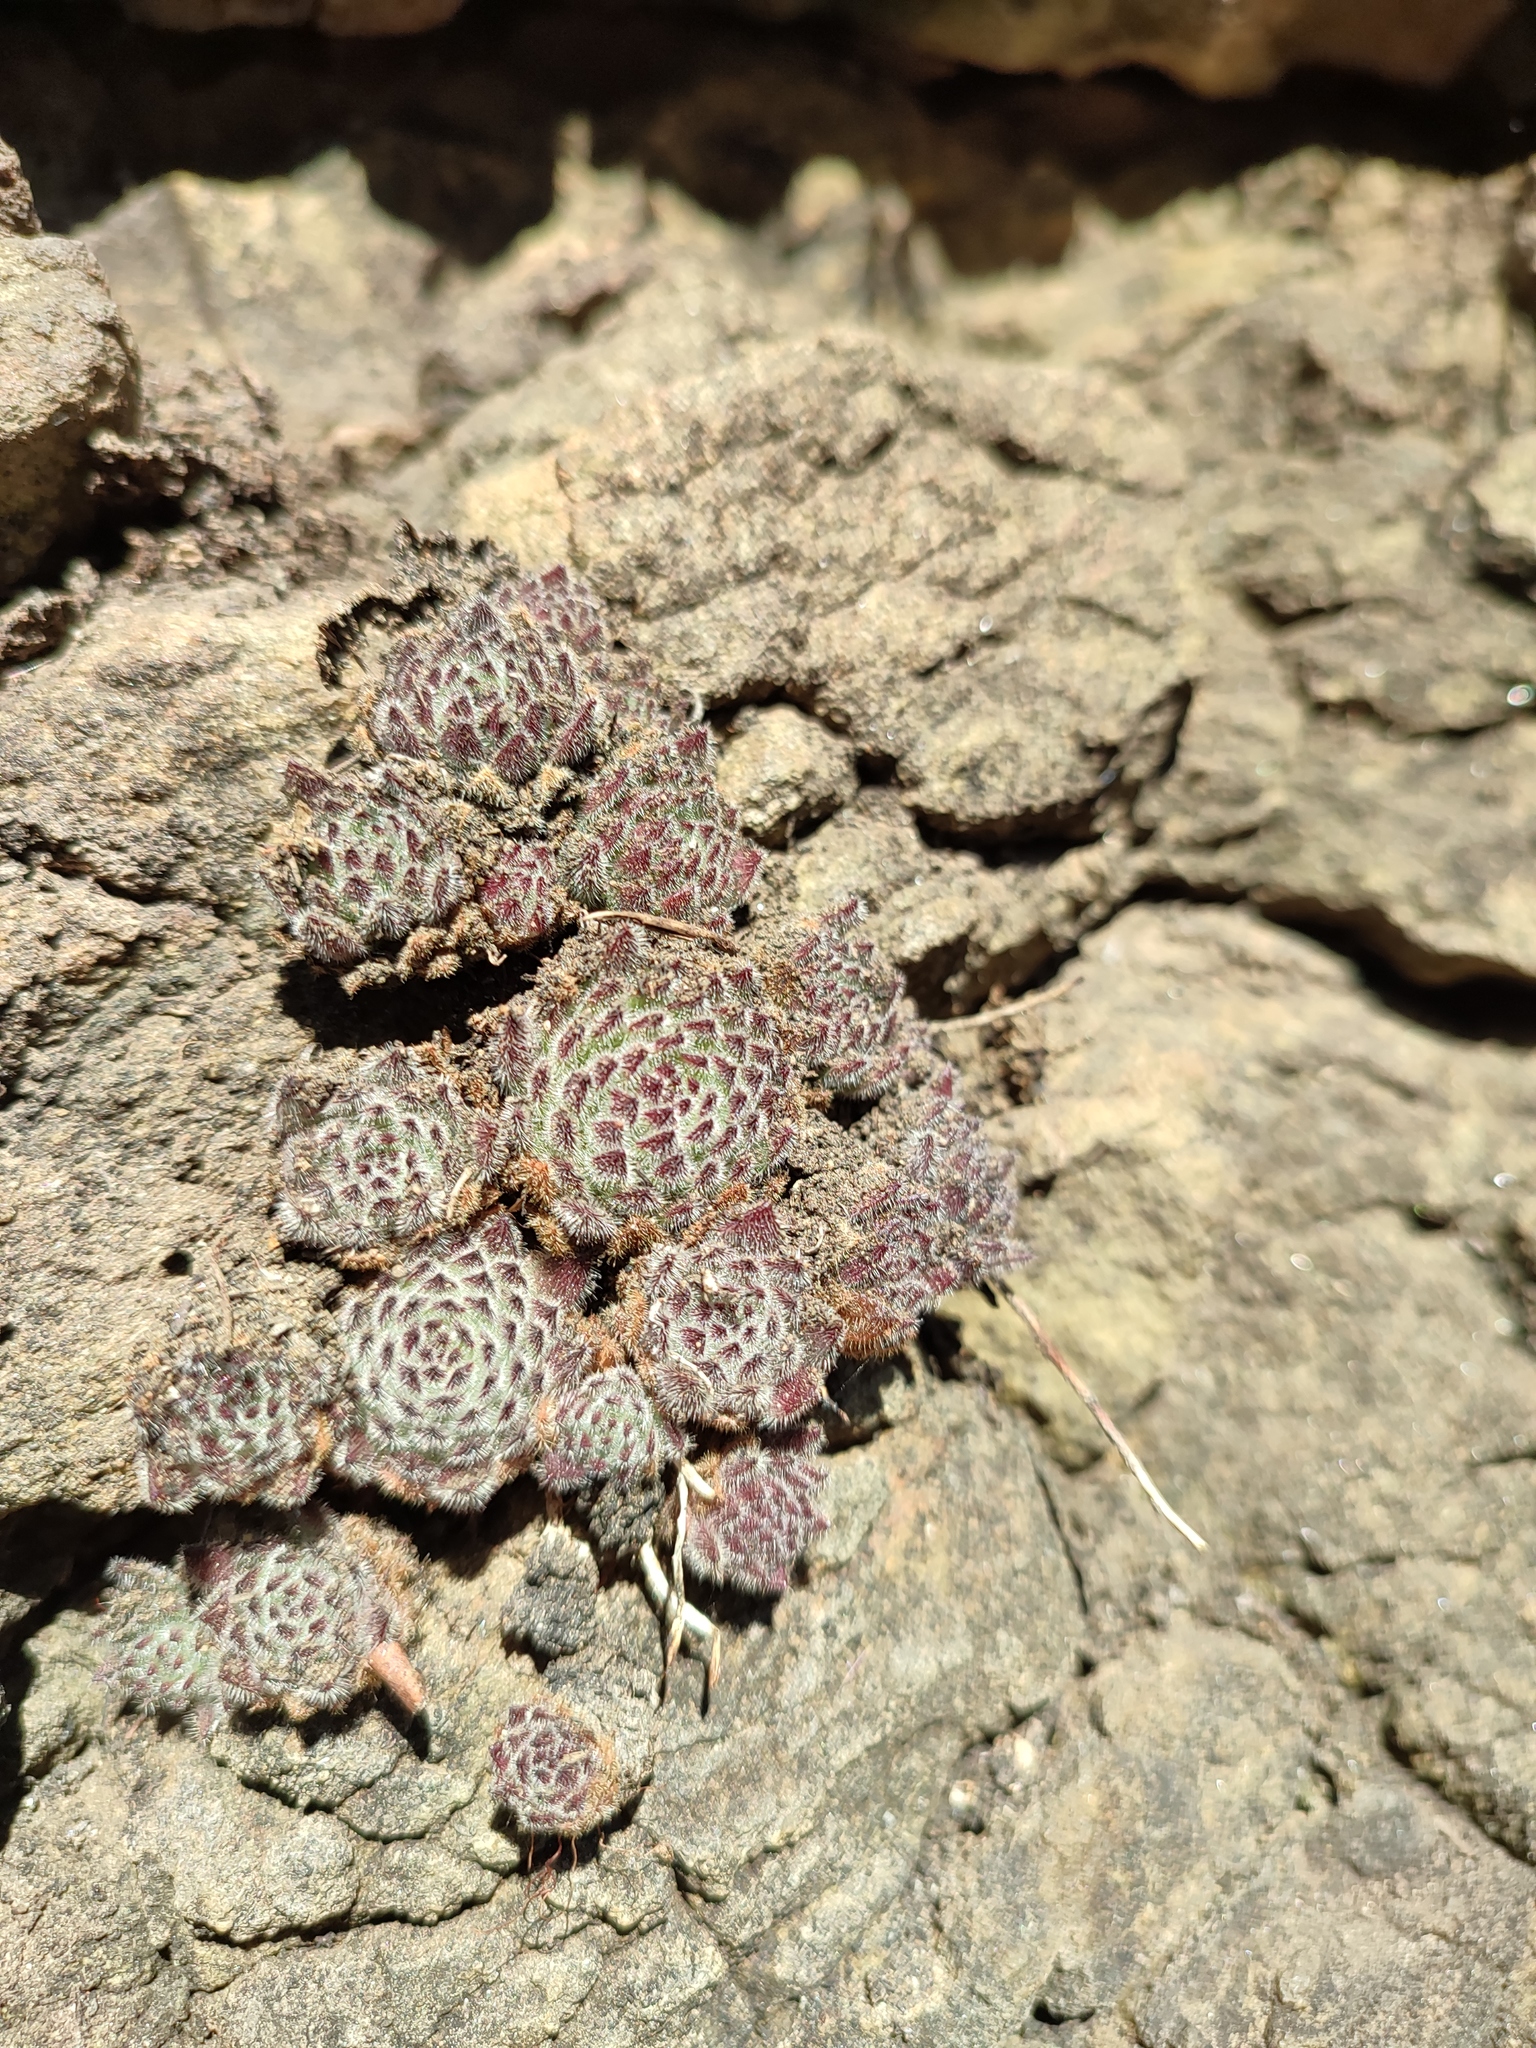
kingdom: Plantae
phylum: Tracheophyta
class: Magnoliopsida
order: Saxifragales
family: Crassulaceae
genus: Sempervivum
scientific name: Sempervivum pittonii
